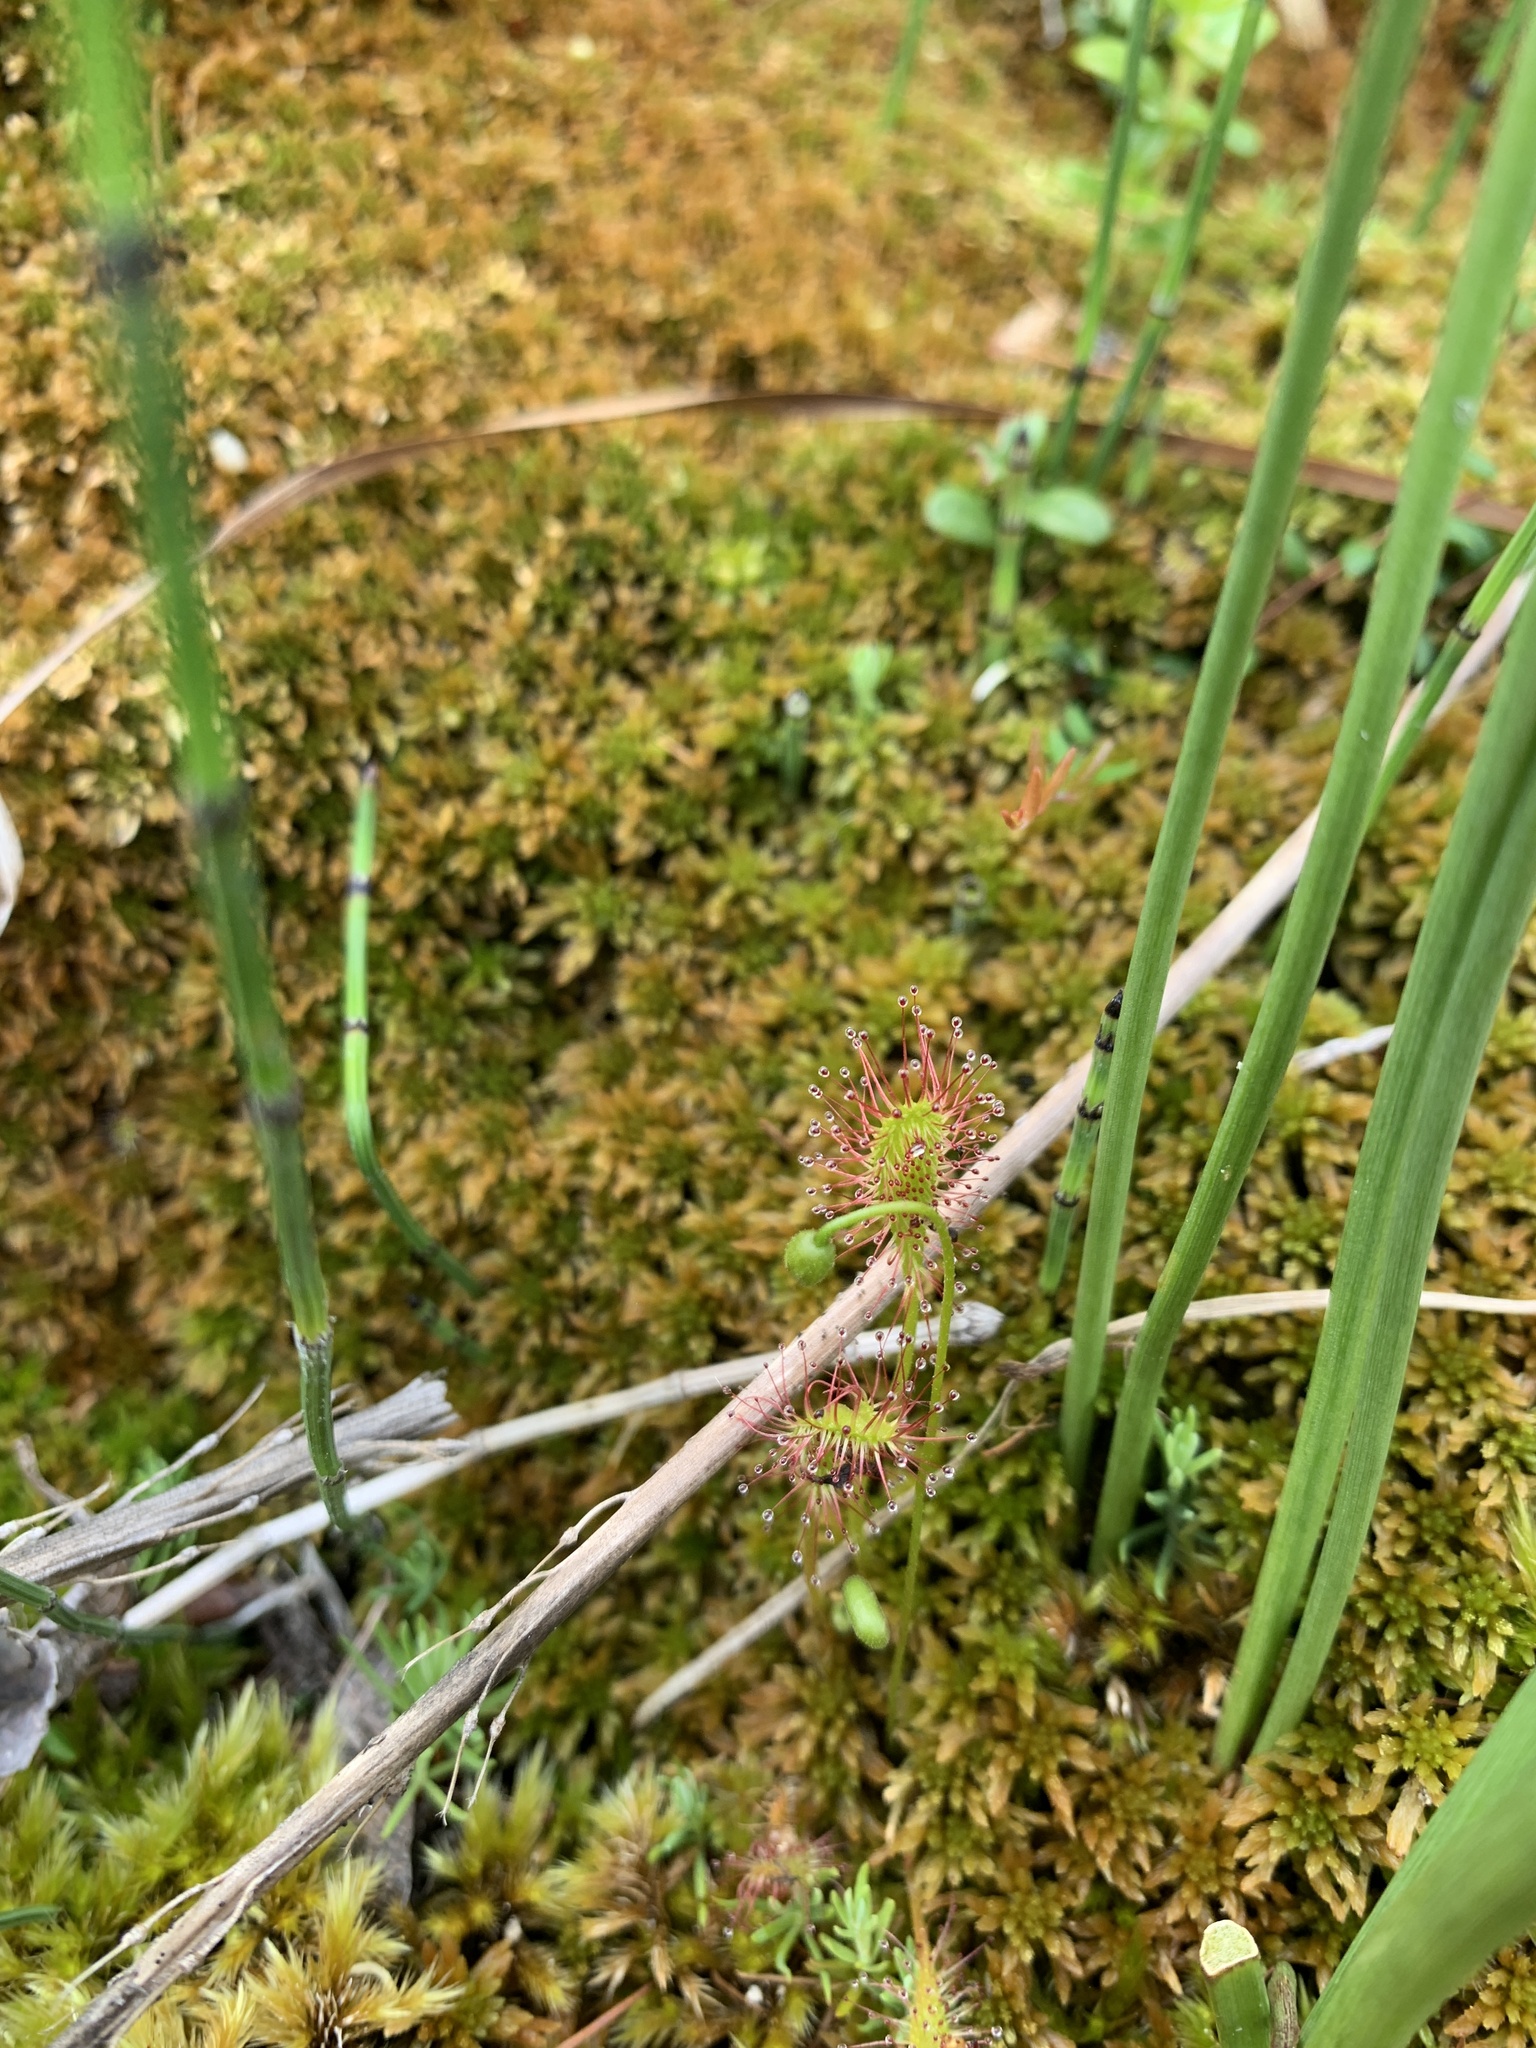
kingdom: Plantae
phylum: Tracheophyta
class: Magnoliopsida
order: Caryophyllales
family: Droseraceae
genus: Drosera
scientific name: Drosera anglica
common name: Great sundew
